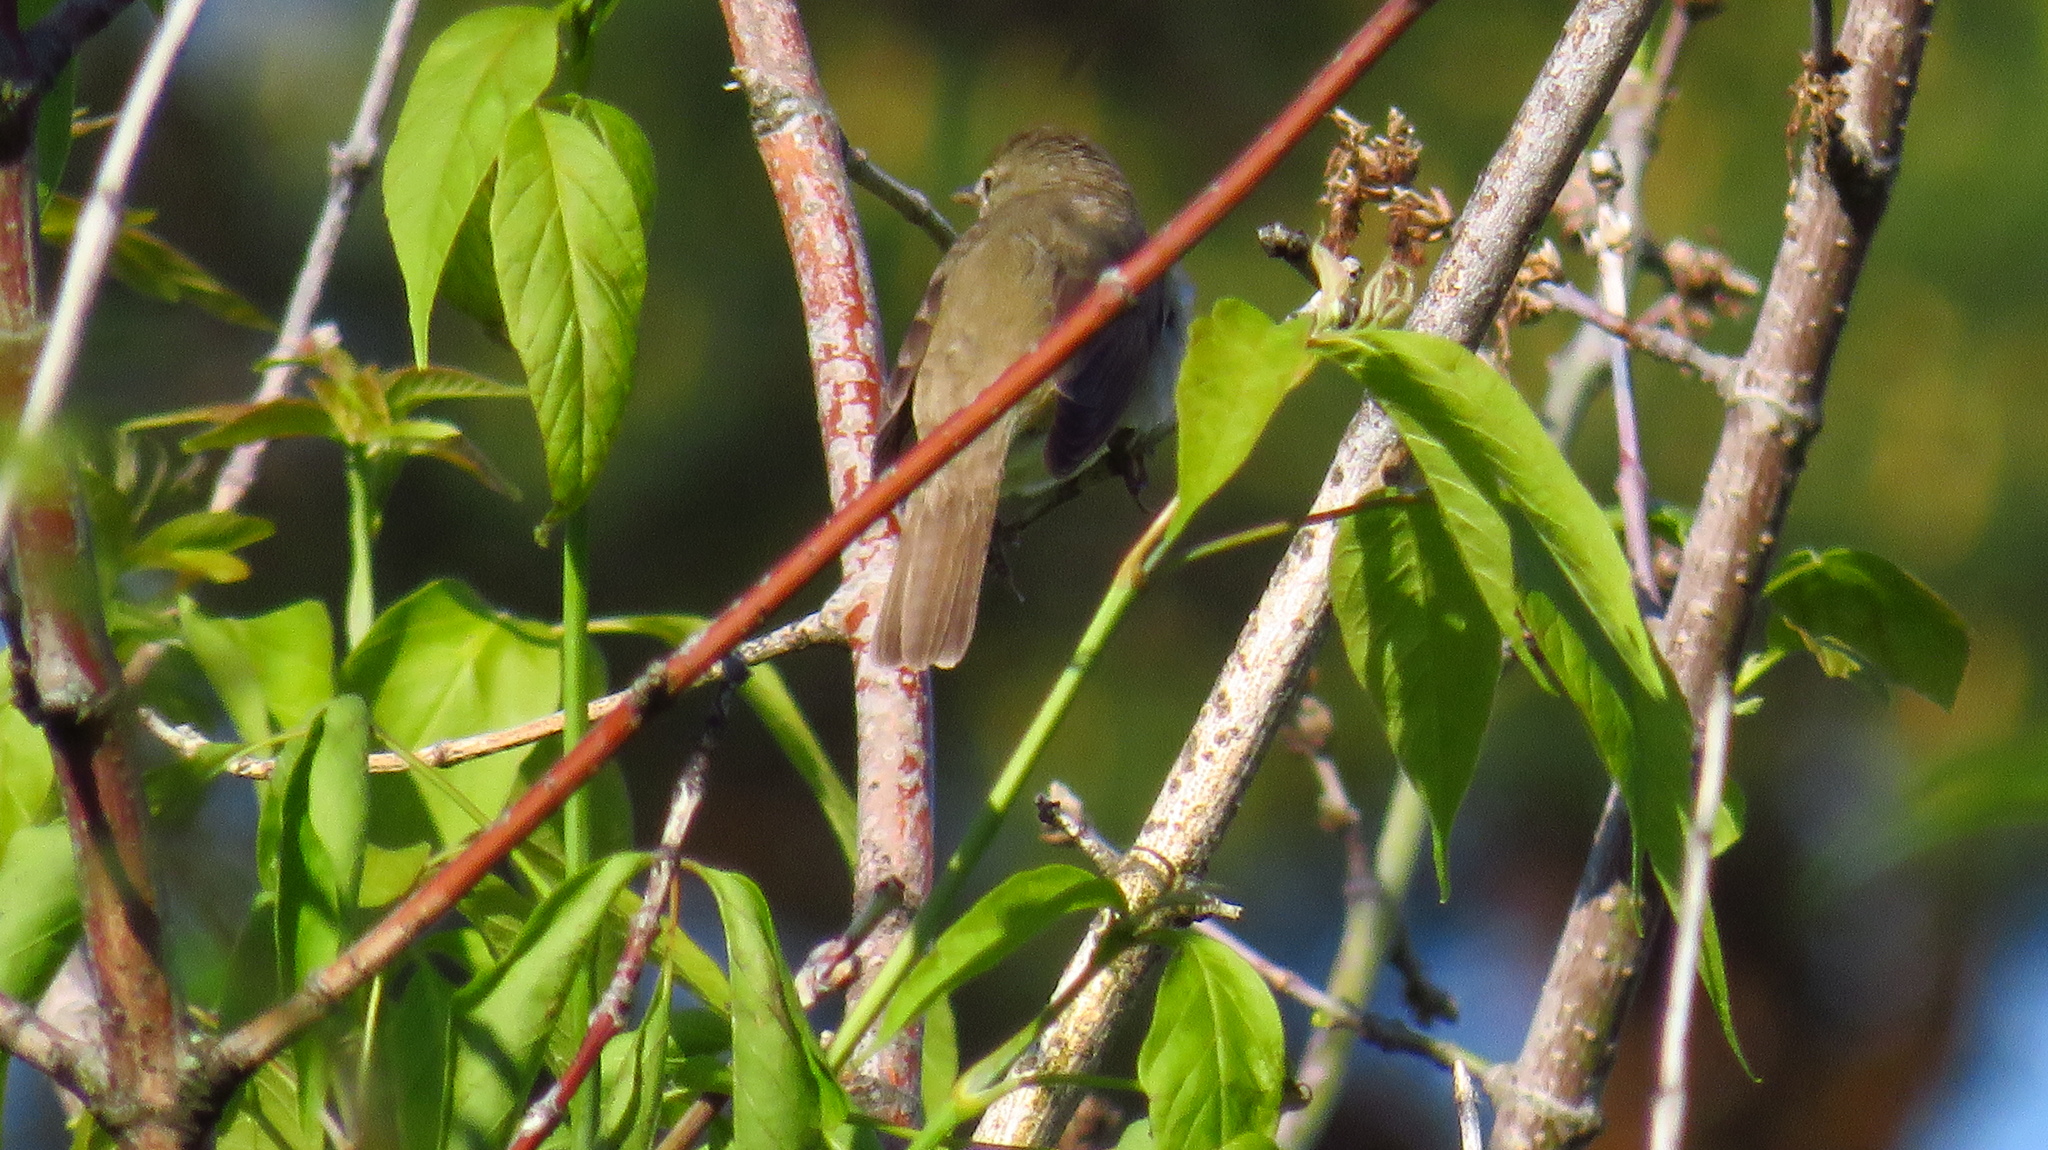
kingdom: Animalia
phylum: Chordata
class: Aves
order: Passeriformes
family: Acrocephalidae
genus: Acrocephalus
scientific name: Acrocephalus dumetorum
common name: Blyth's reed warbler
